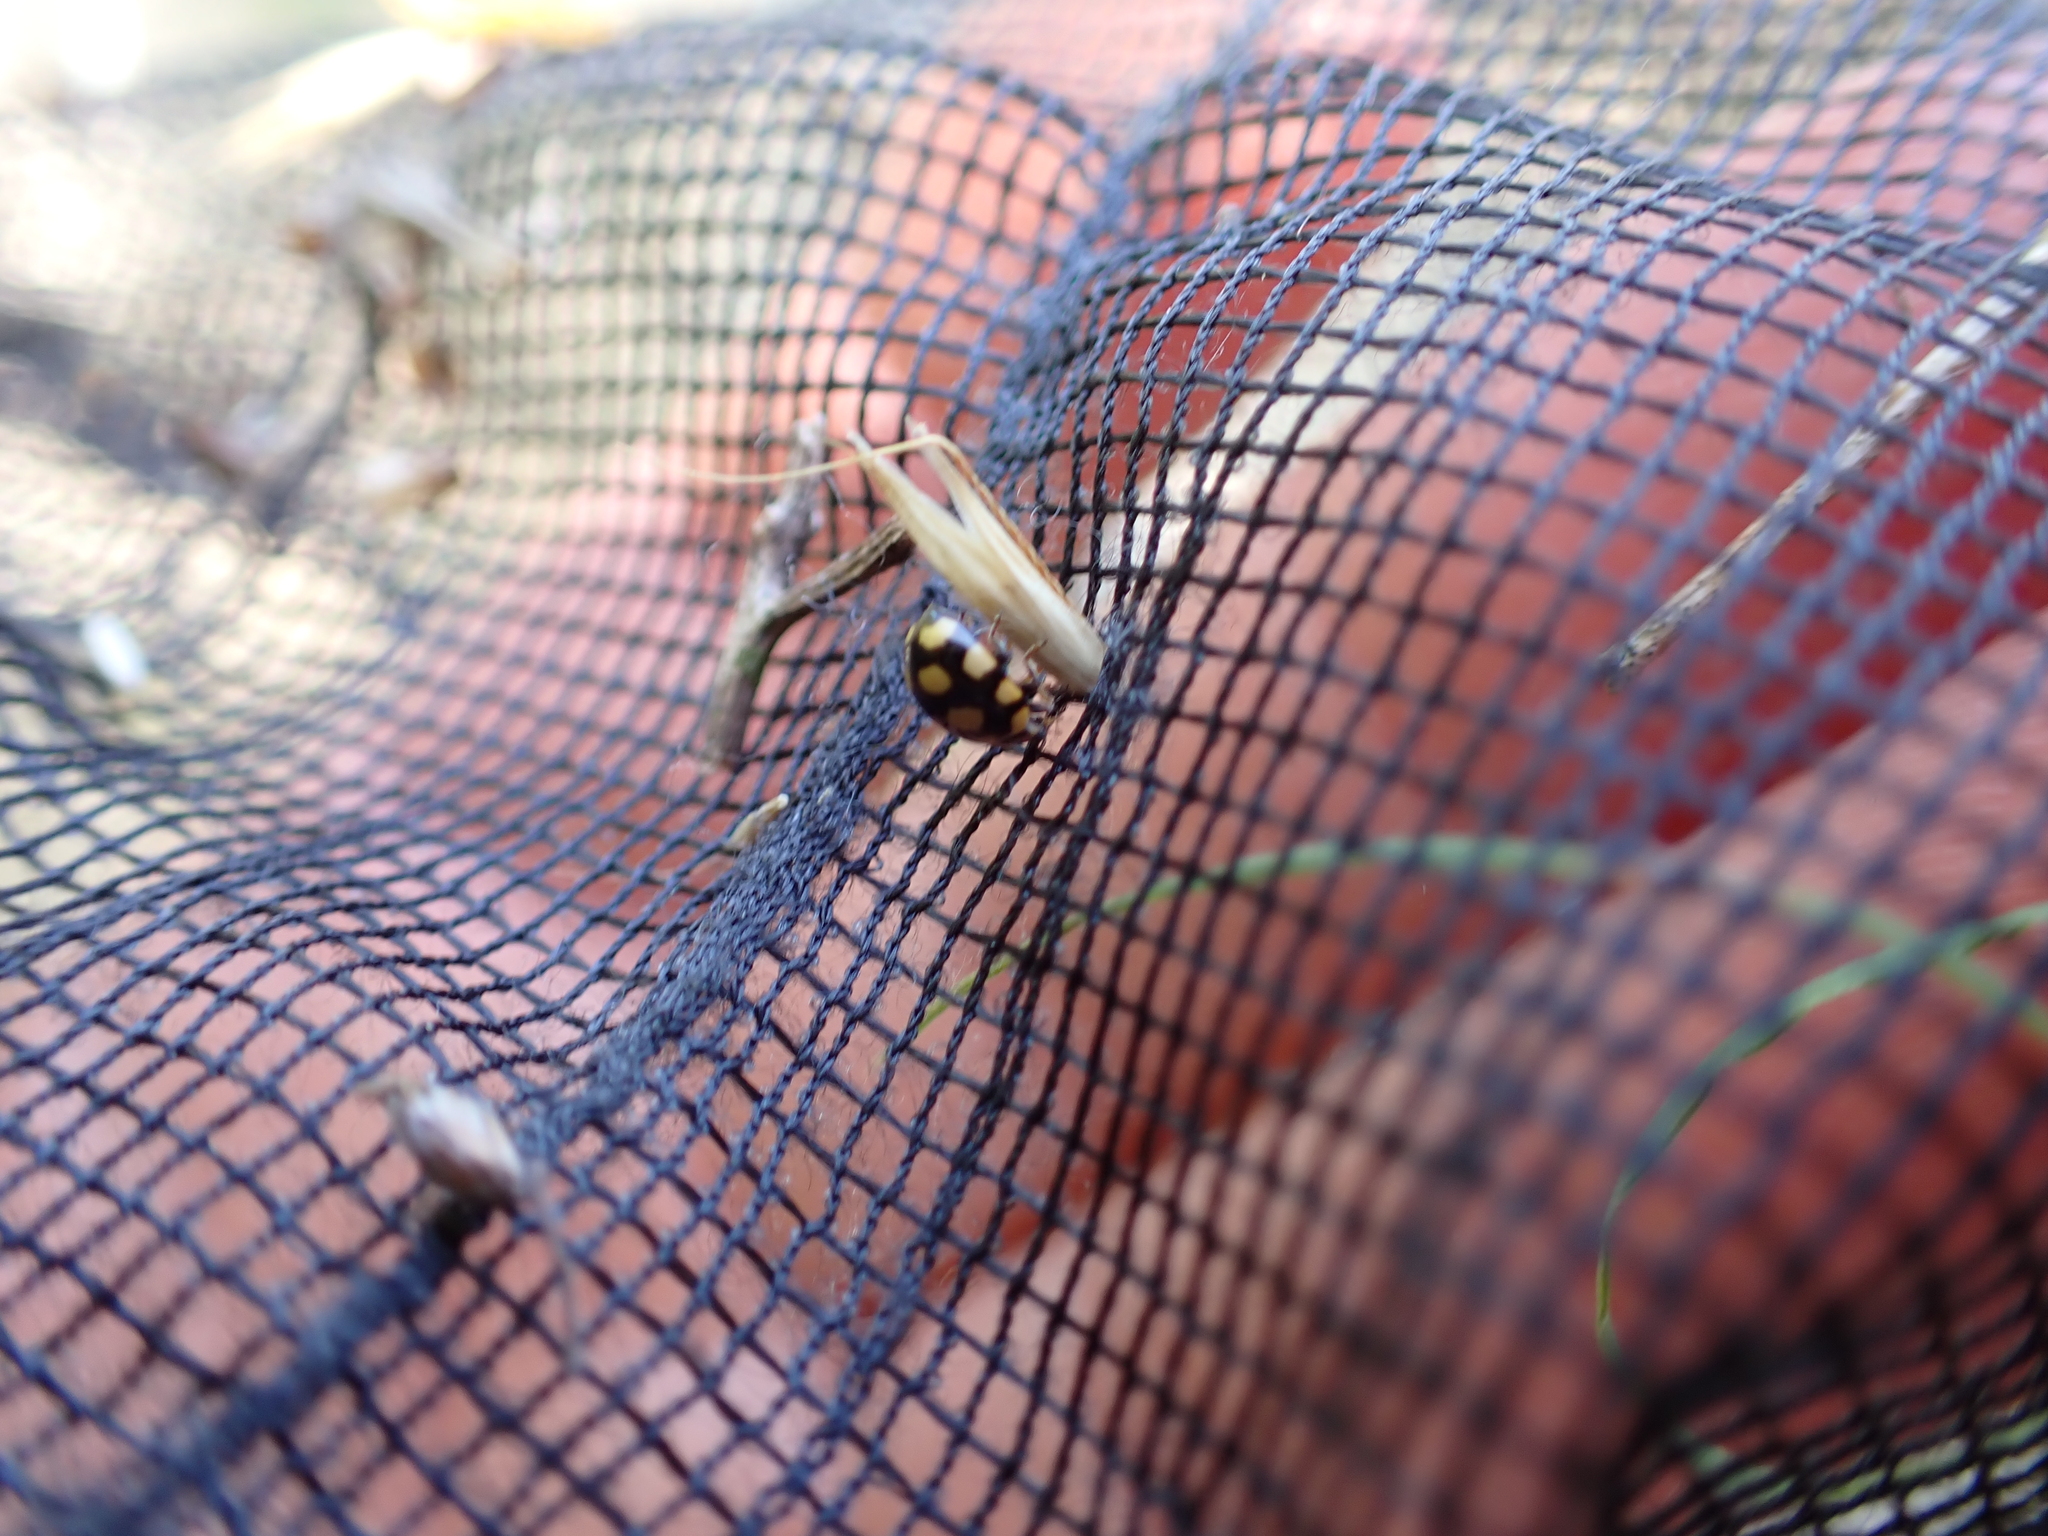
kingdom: Animalia
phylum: Arthropoda
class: Insecta
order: Coleoptera
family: Coccinellidae
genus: Coccinula
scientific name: Coccinula quatuordecimpustulata
